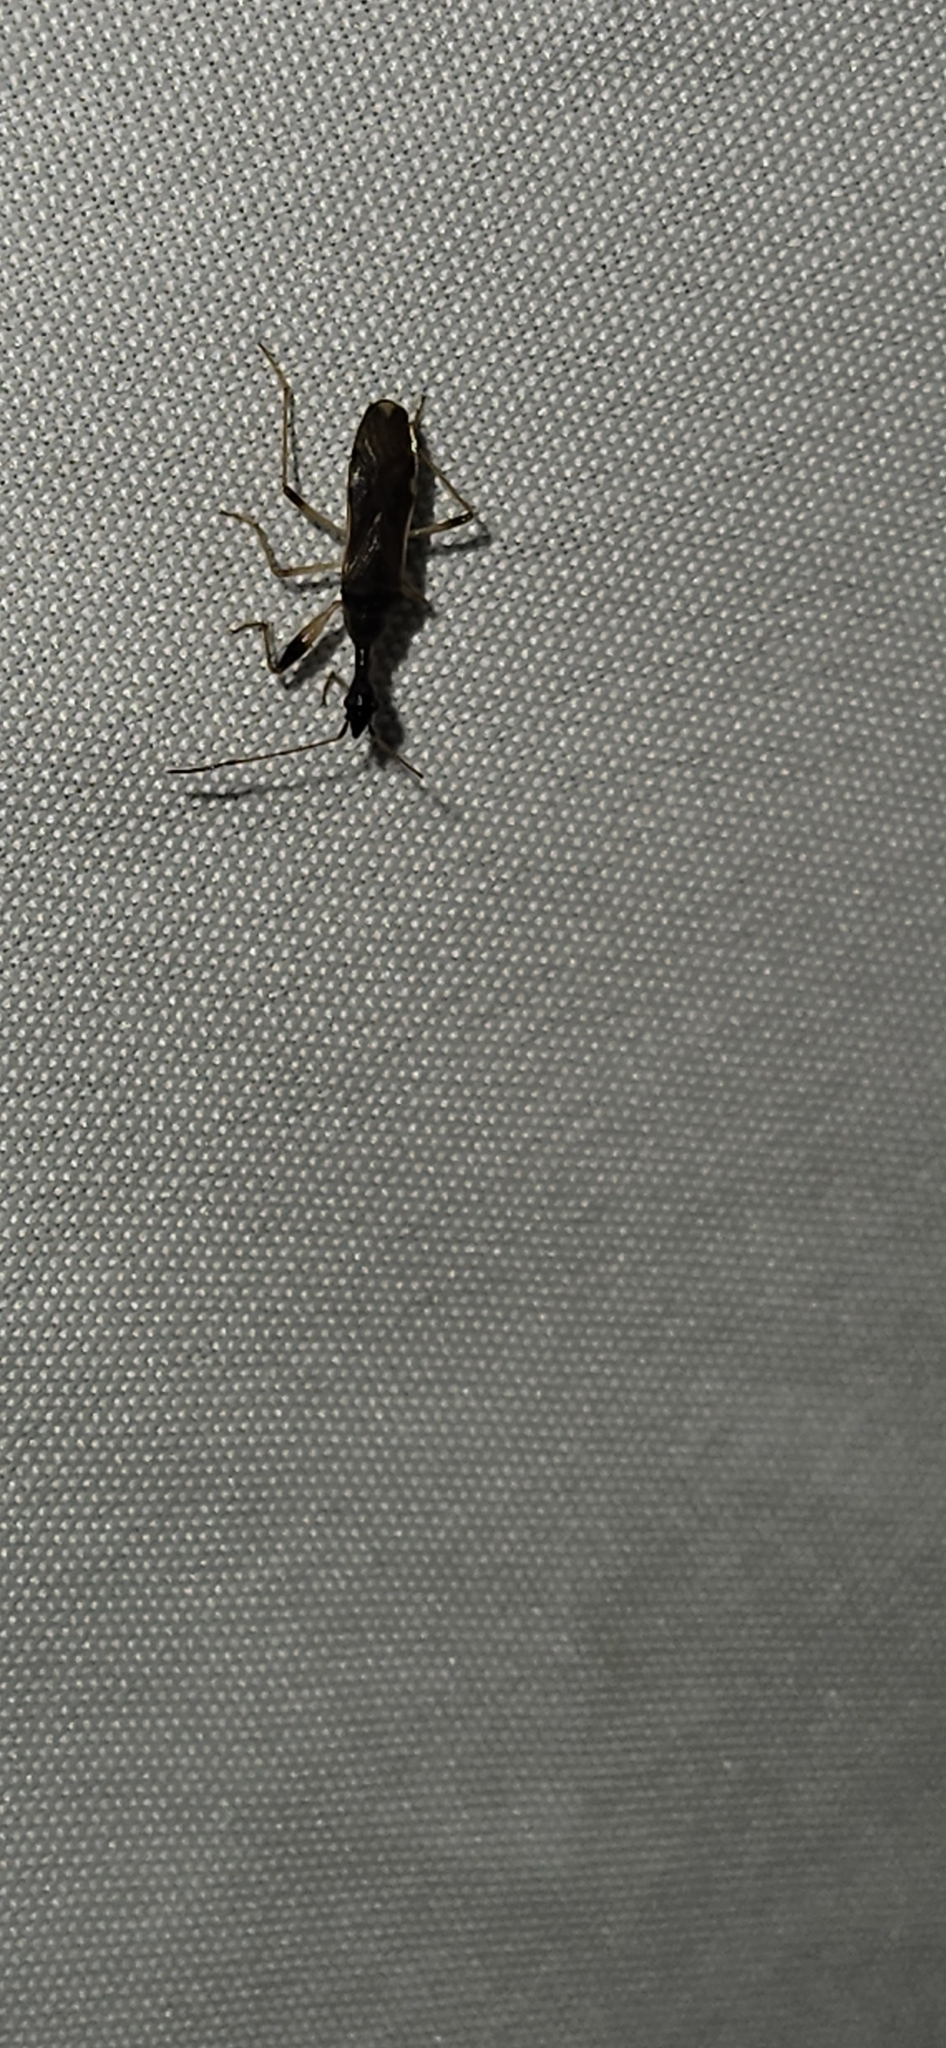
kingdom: Animalia
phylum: Arthropoda
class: Insecta
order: Hemiptera
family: Rhyparochromidae
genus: Myodocha
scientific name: Myodocha serripes
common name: Long-necked seed bug
